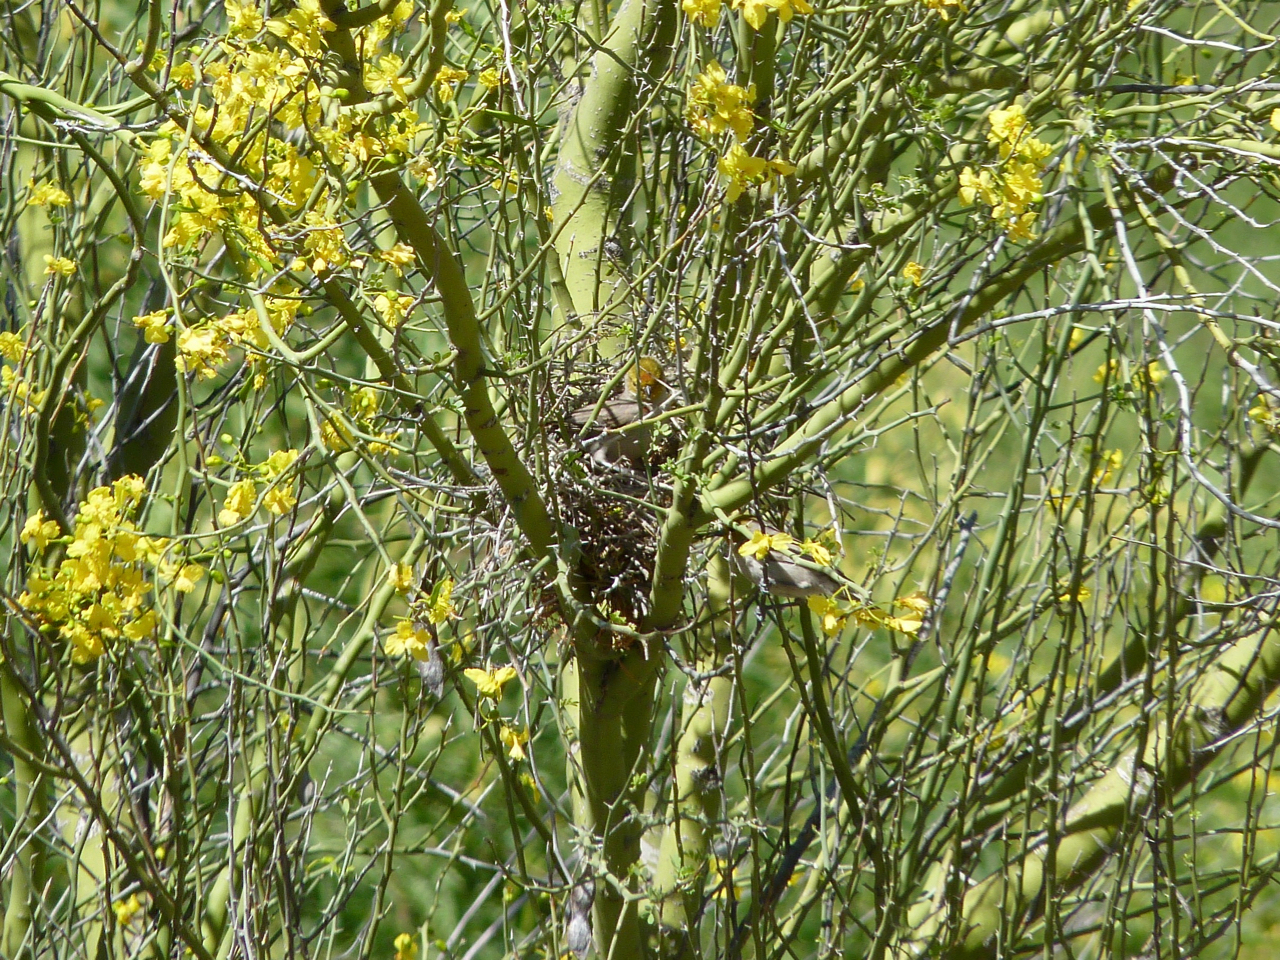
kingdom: Animalia
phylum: Chordata
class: Aves
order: Passeriformes
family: Remizidae
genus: Auriparus
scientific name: Auriparus flaviceps
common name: Verdin
